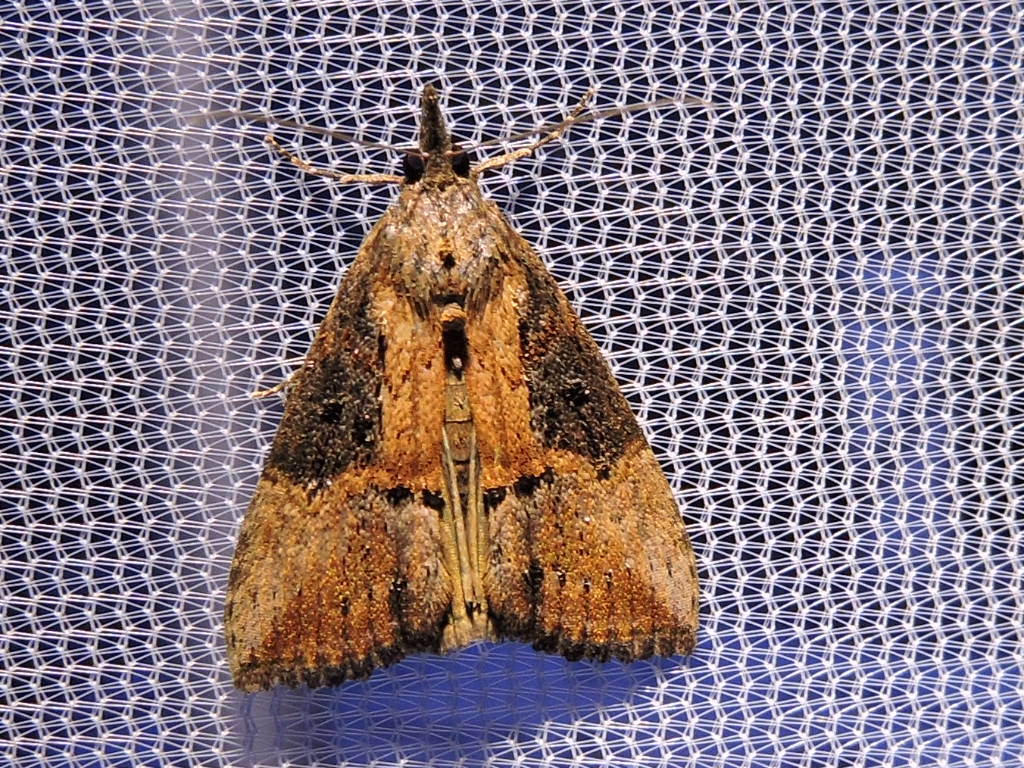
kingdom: Animalia
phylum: Arthropoda
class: Insecta
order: Lepidoptera
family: Erebidae
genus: Hypena
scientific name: Hypena scabra
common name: Green cloverworm
